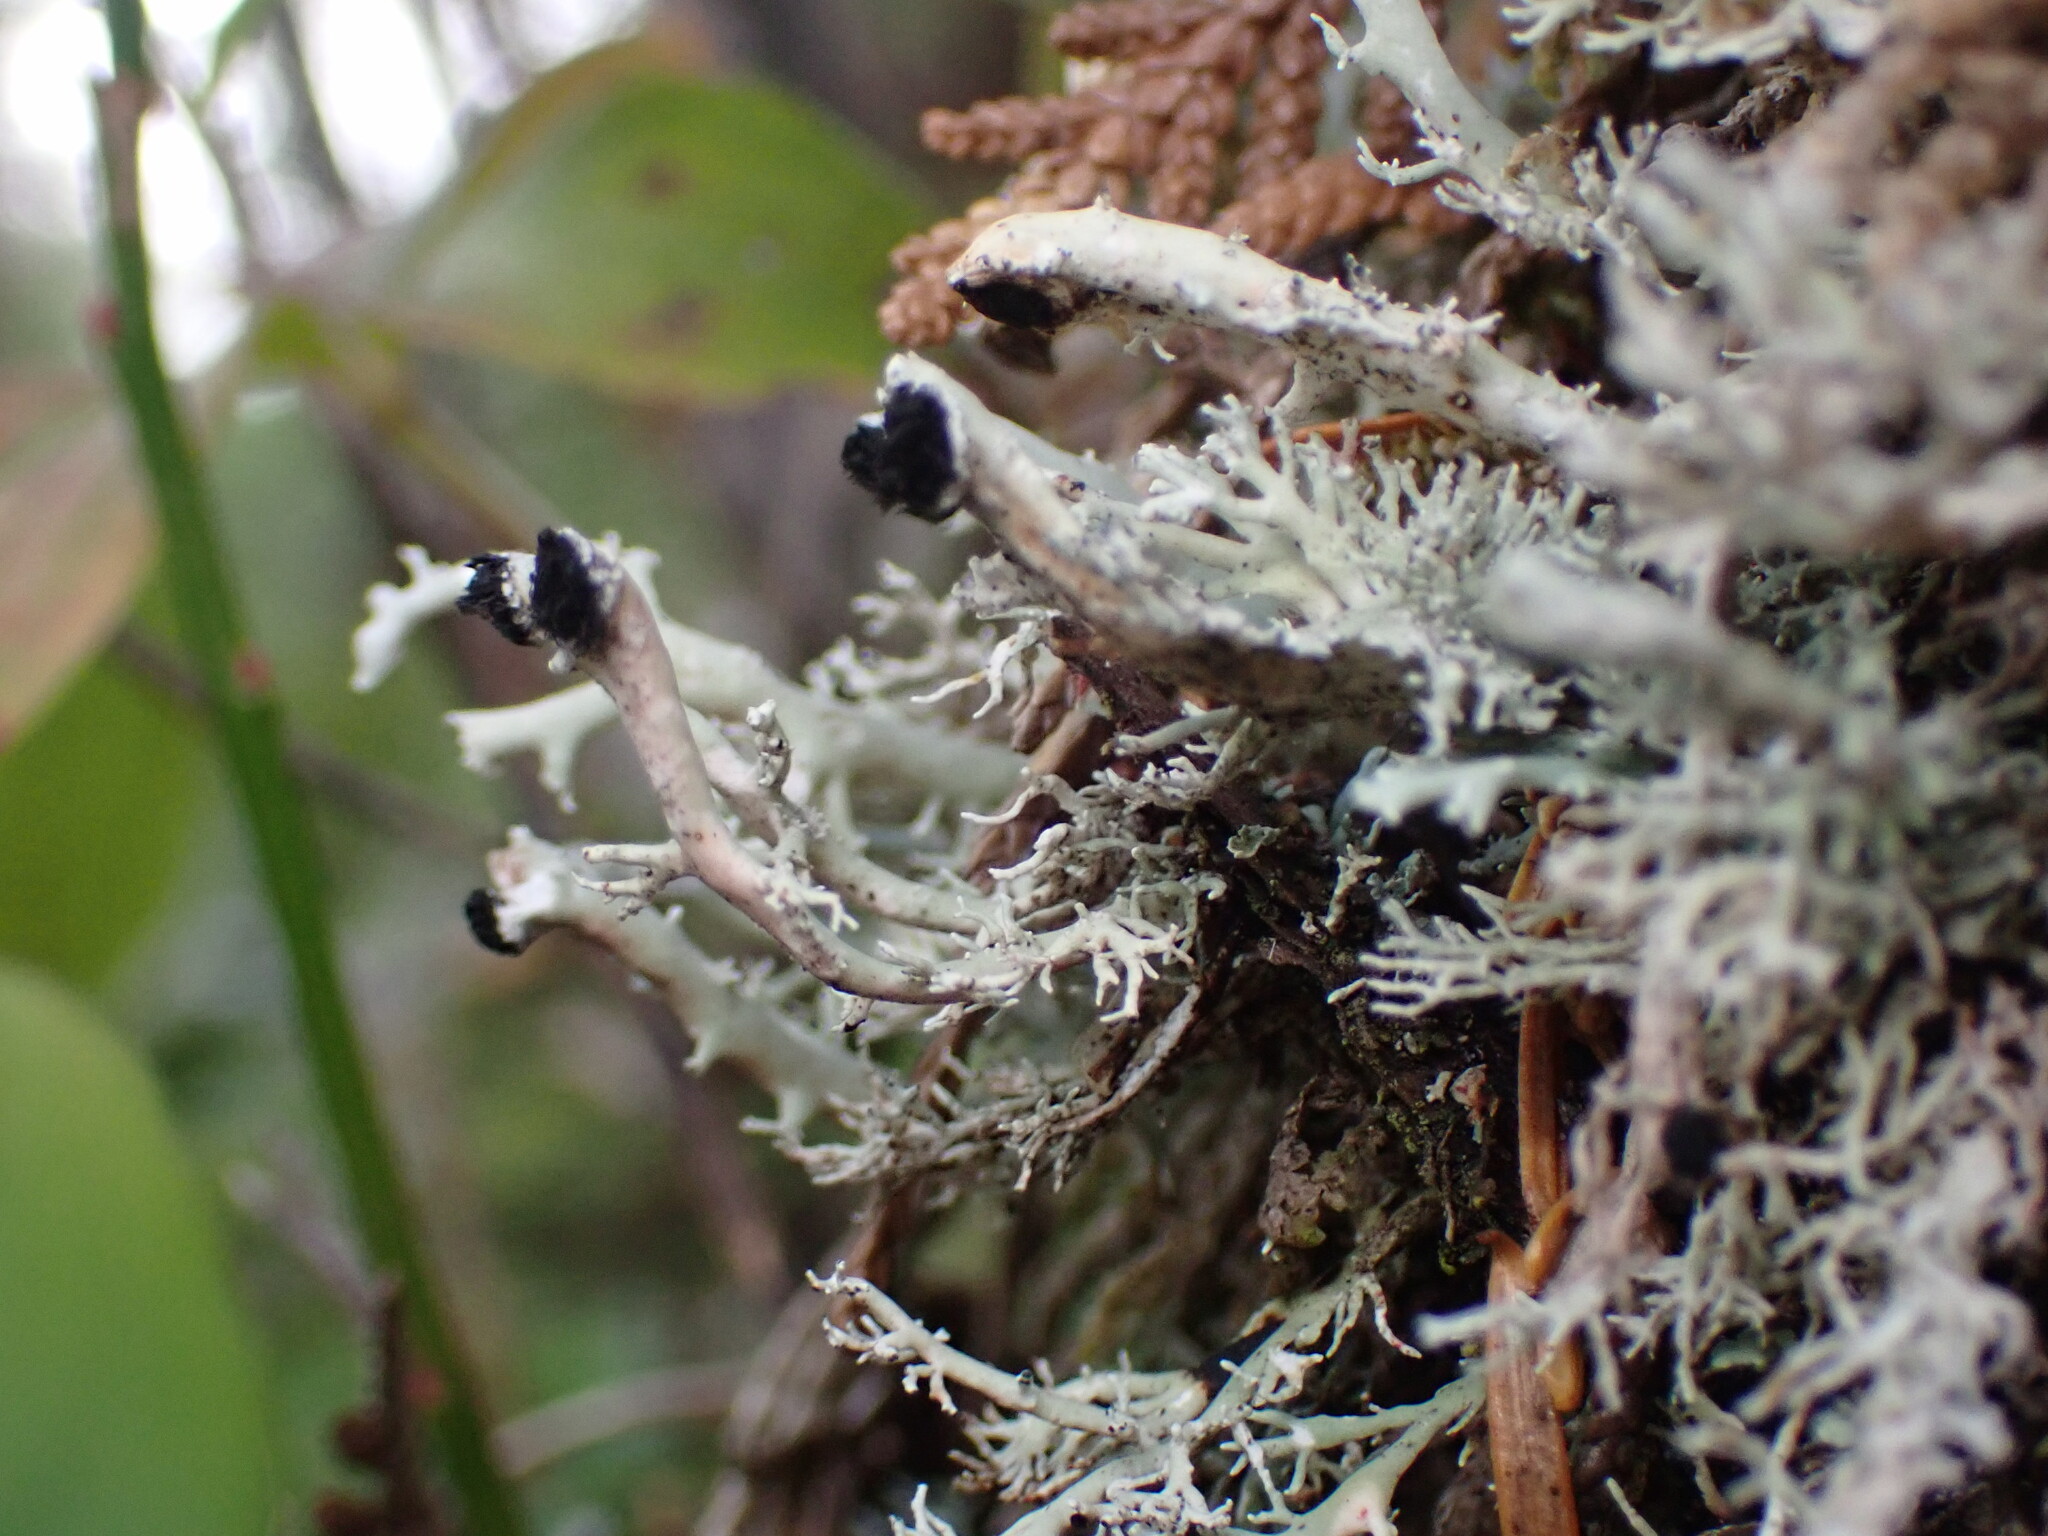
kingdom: Fungi
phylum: Ascomycota
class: Lecanoromycetes
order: Lecanorales
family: Sphaerophoraceae
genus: Bunodophoron
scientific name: Bunodophoron melanocarpum
